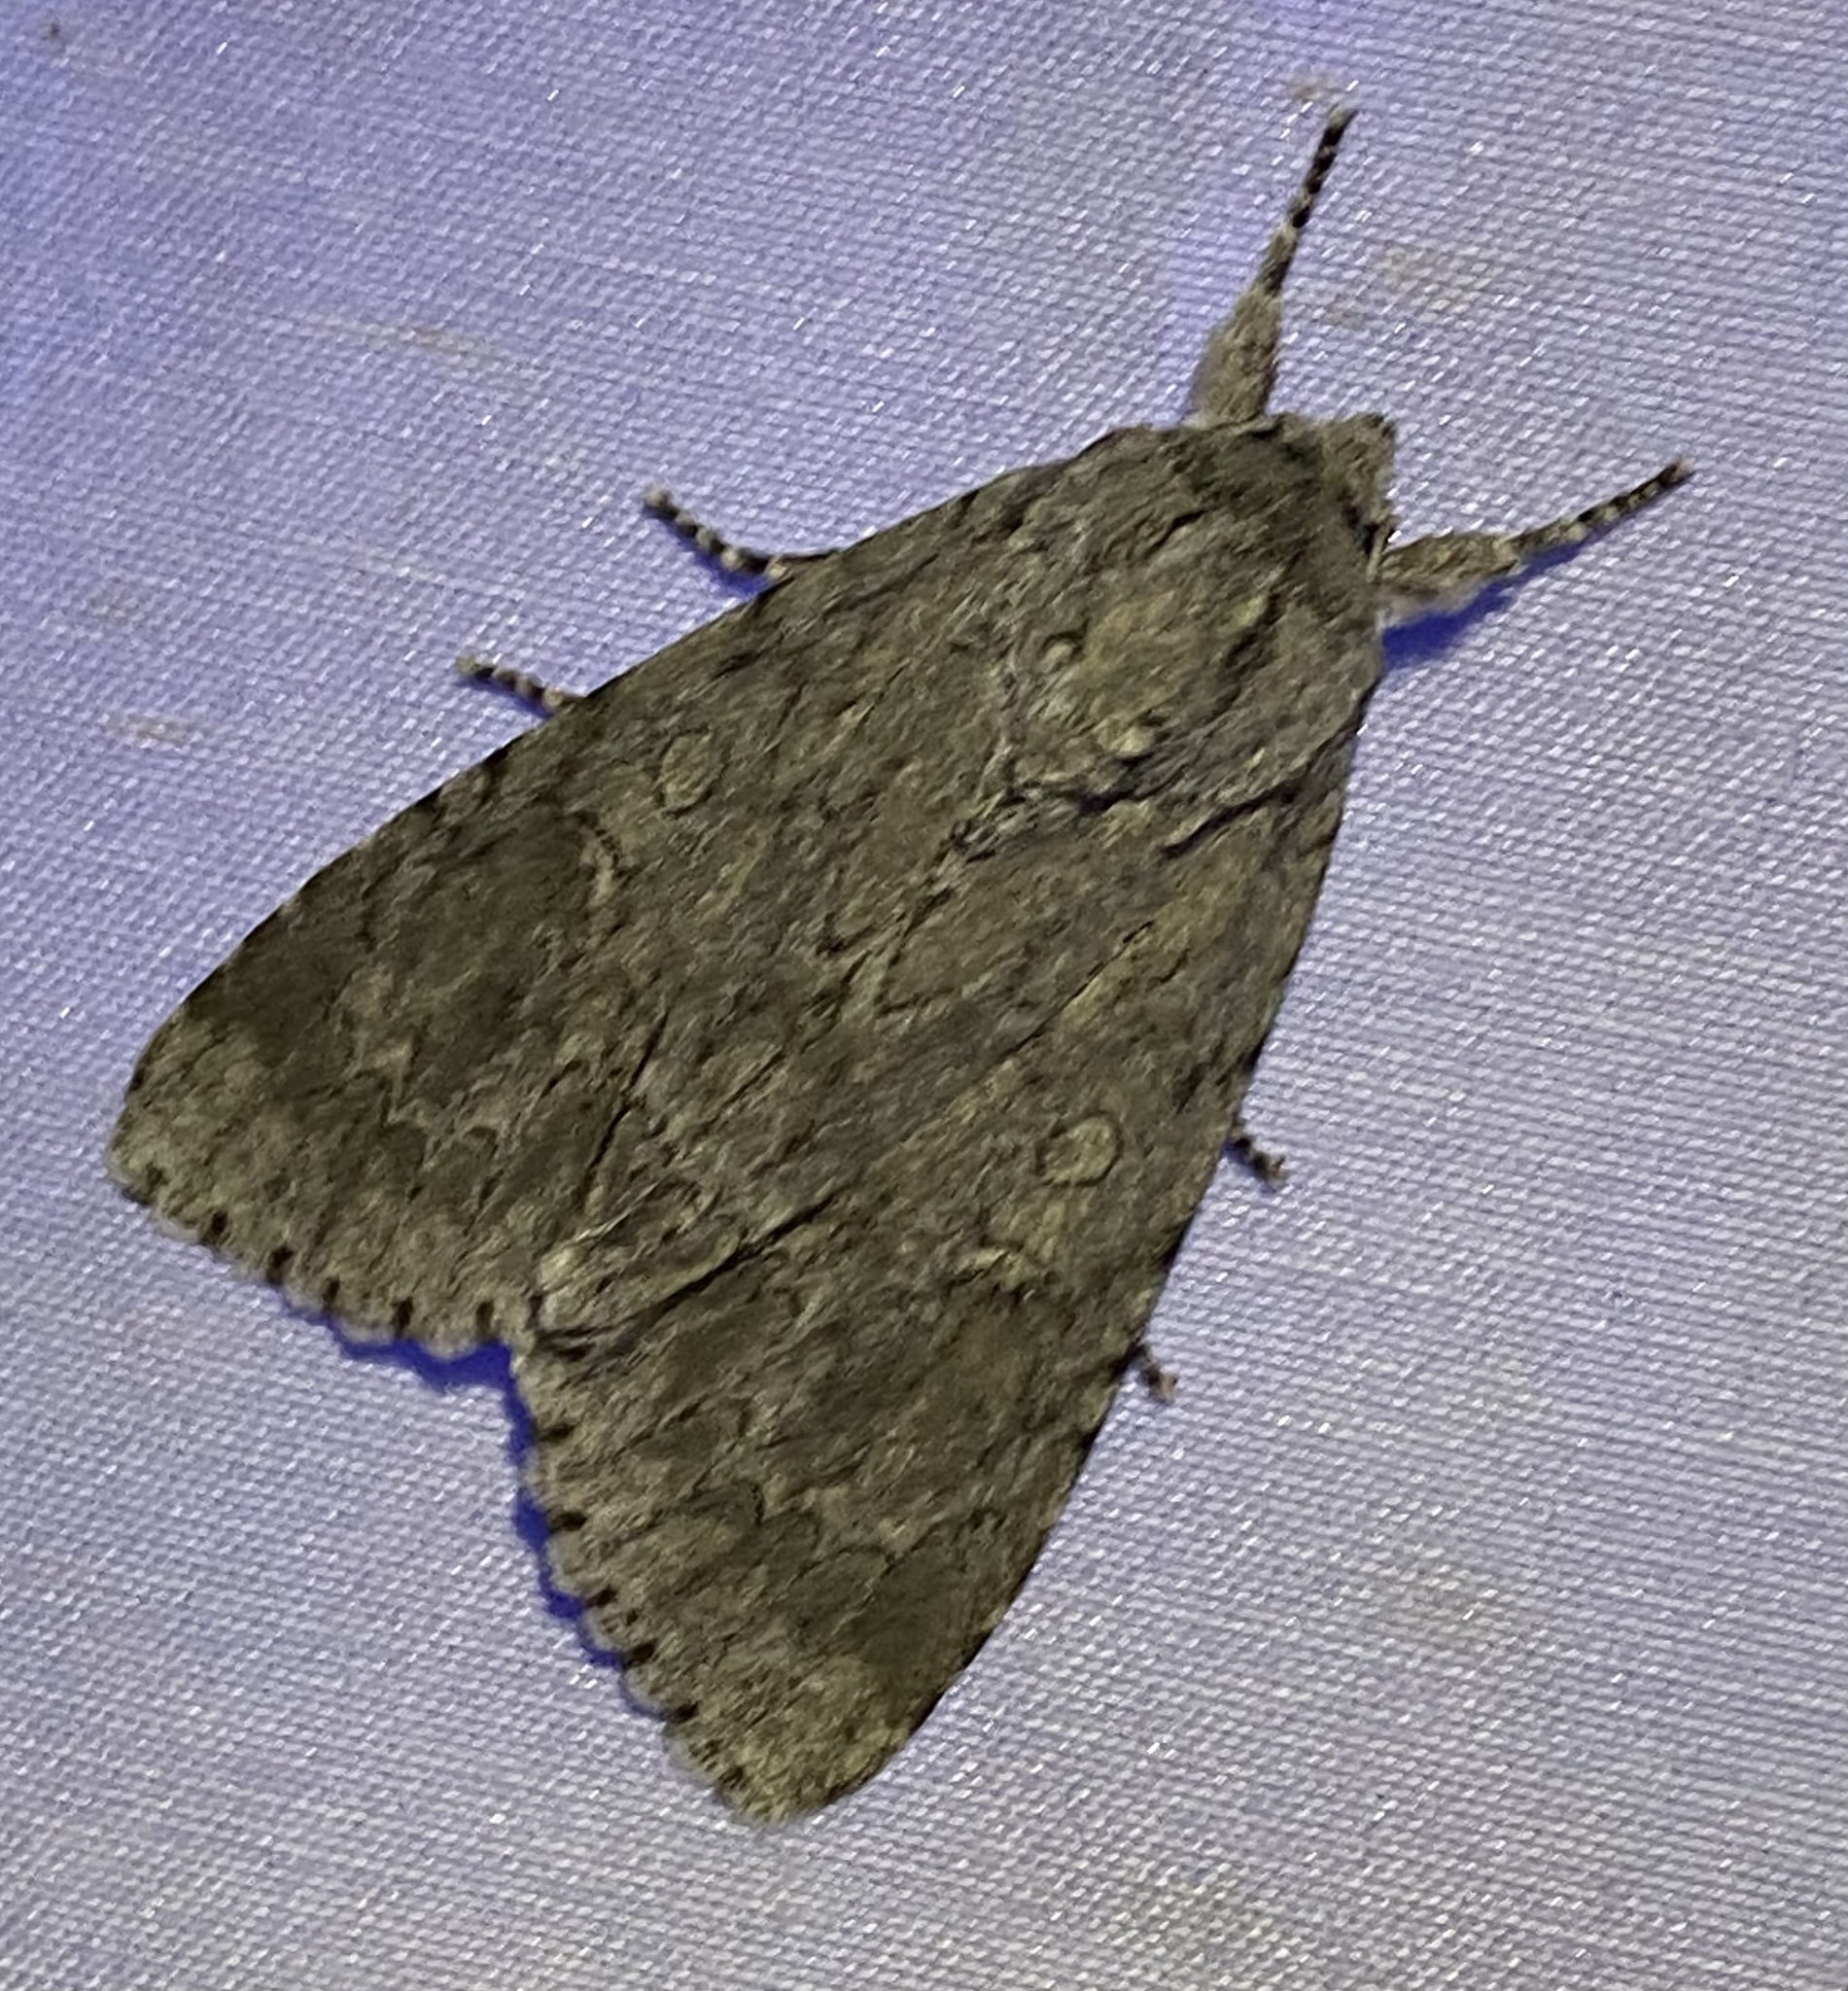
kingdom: Animalia
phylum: Arthropoda
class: Insecta
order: Lepidoptera
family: Noctuidae
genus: Acronicta
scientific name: Acronicta americana
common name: American dagger
